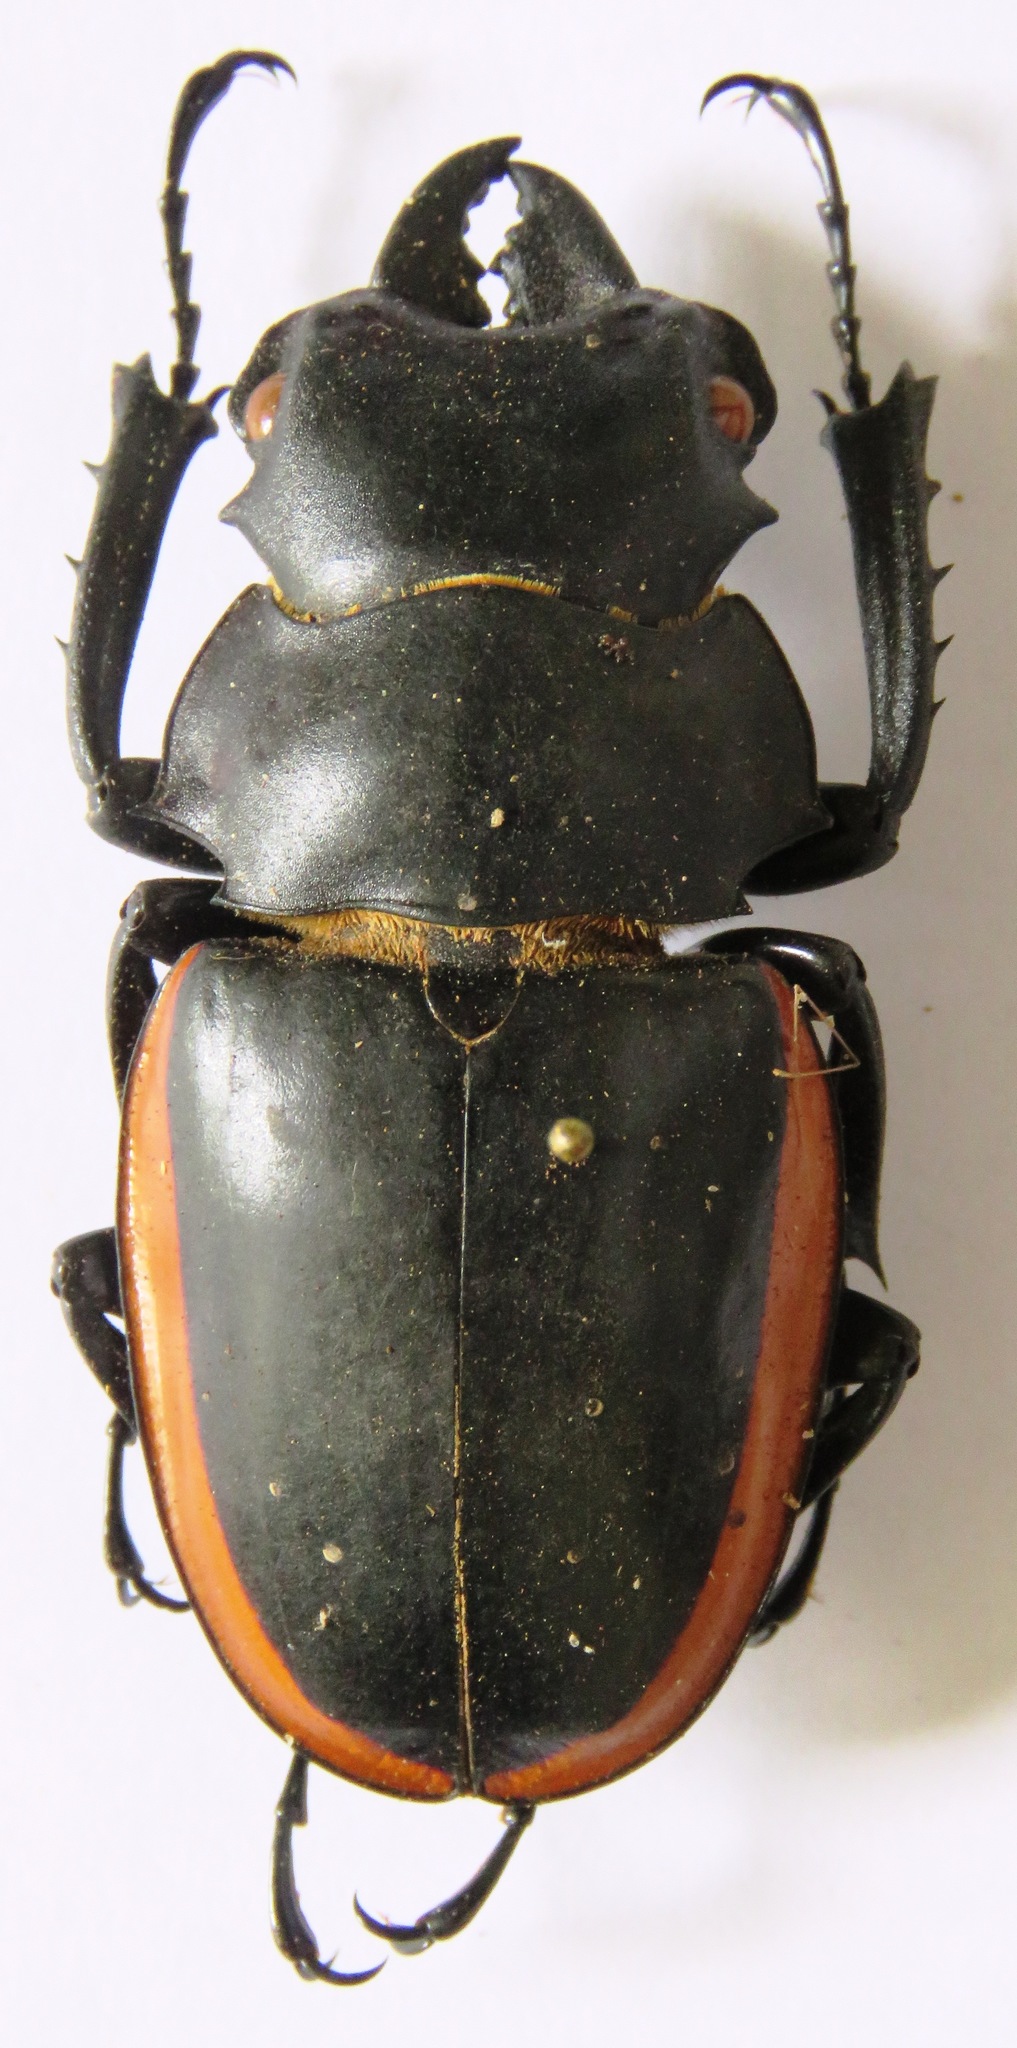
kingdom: Animalia
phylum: Arthropoda
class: Insecta
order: Coleoptera
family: Lucanidae
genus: Odontolabis
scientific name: Odontolabis cuvera
